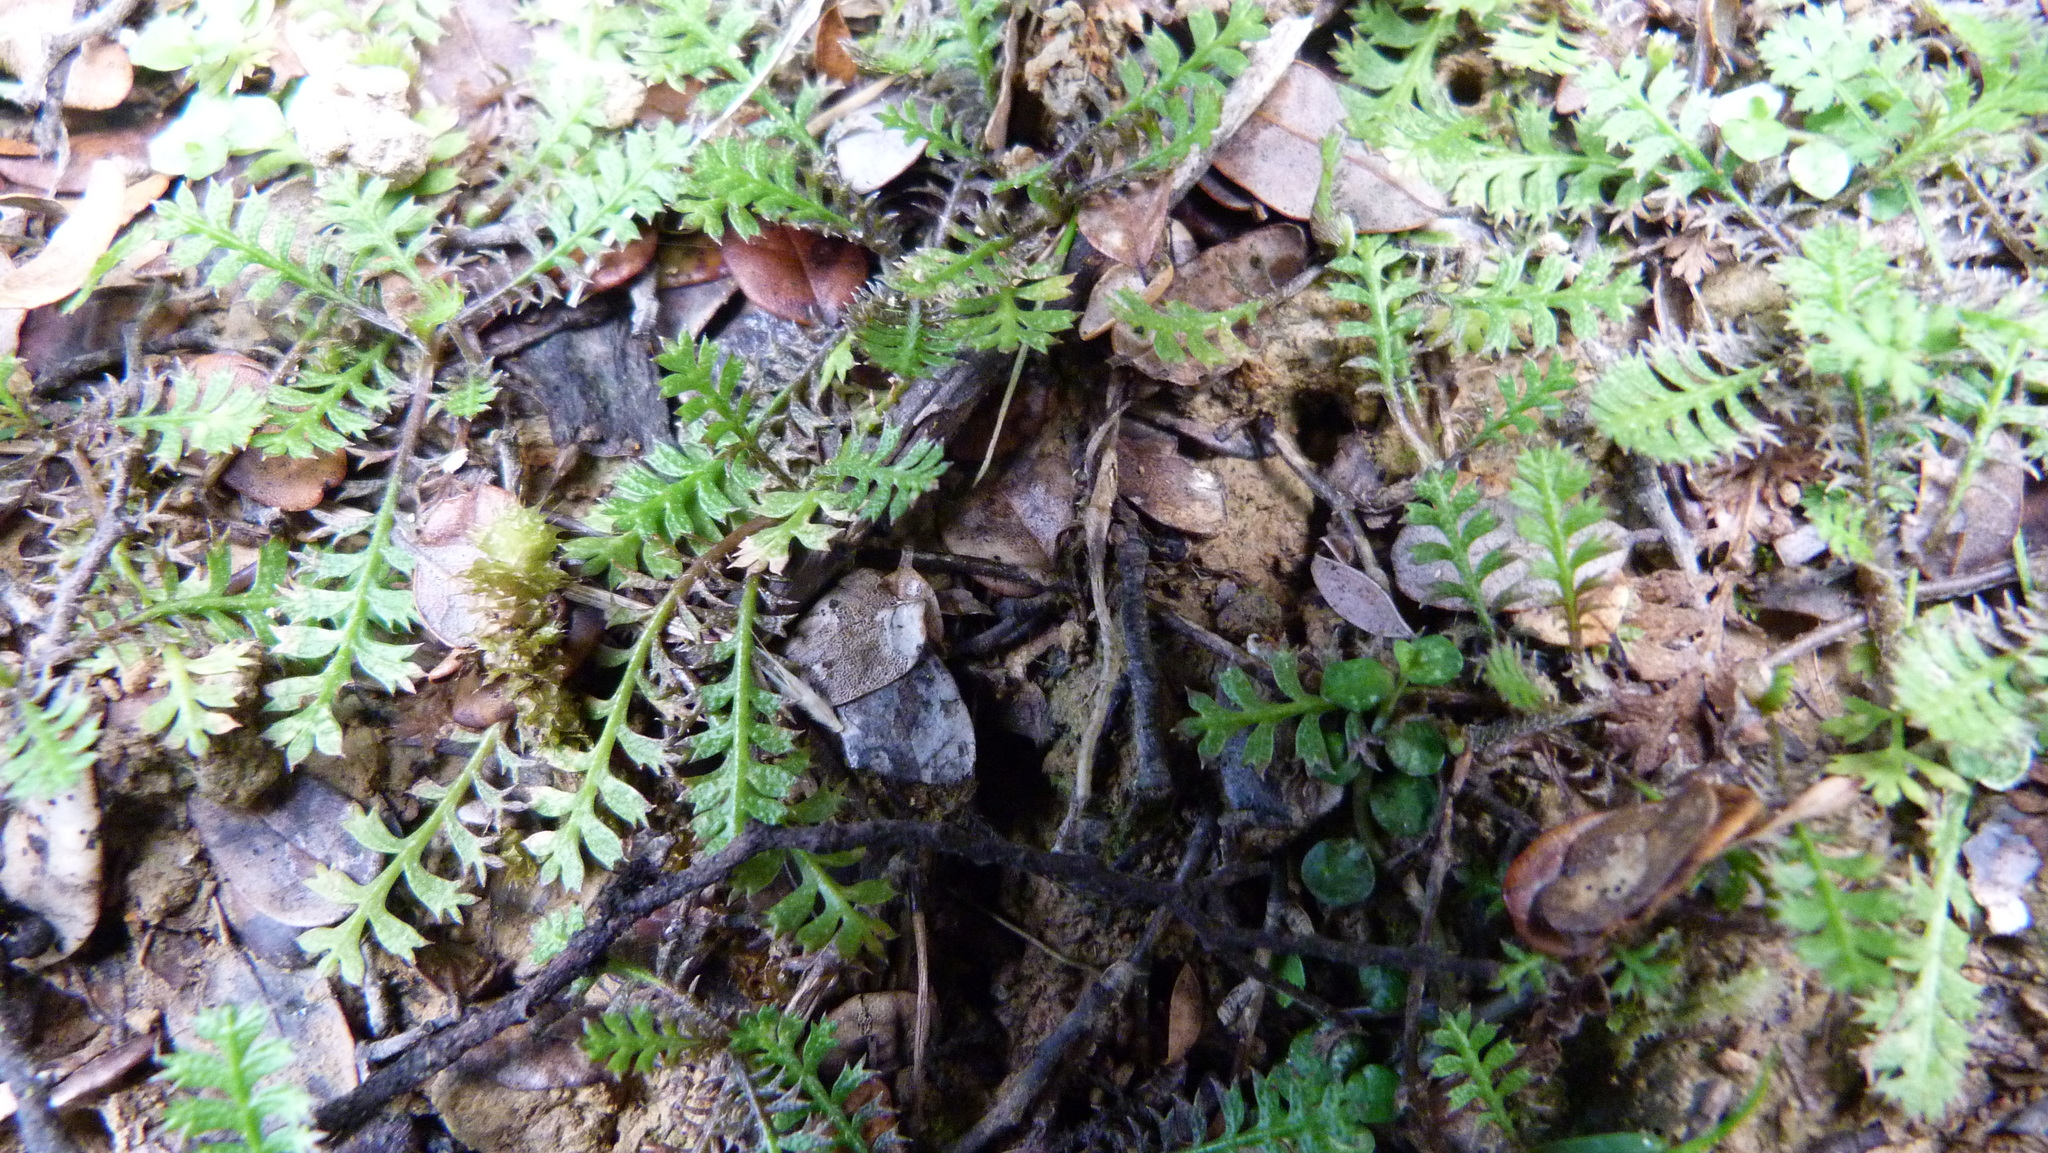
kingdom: Plantae
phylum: Tracheophyta
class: Magnoliopsida
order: Asterales
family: Asteraceae
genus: Leptinella
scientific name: Leptinella squalida
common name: New zealand brass-buttons
